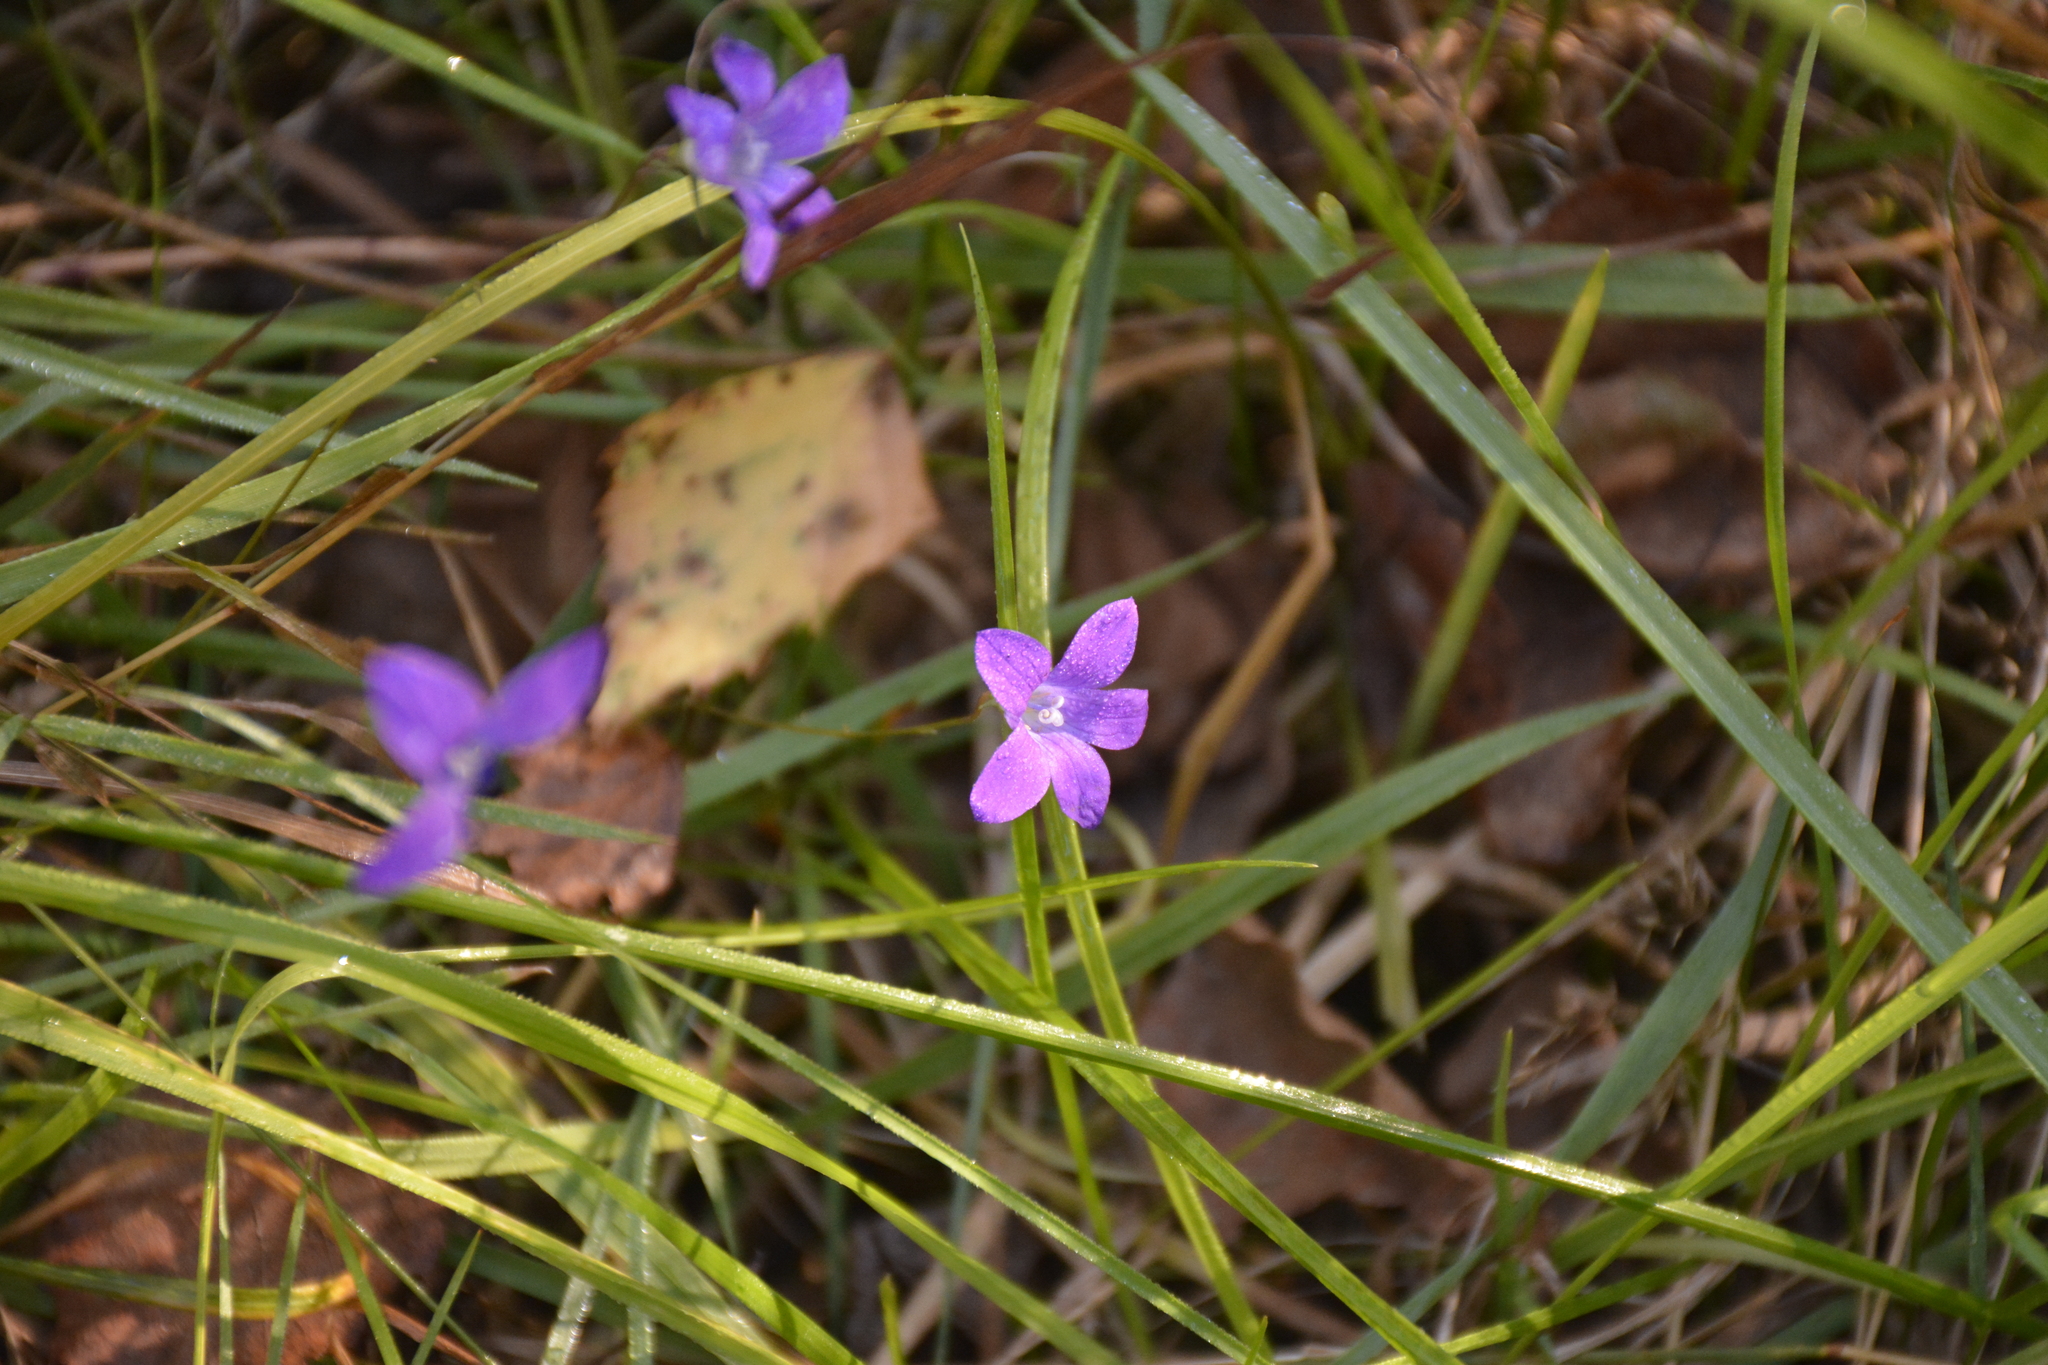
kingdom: Plantae
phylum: Tracheophyta
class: Magnoliopsida
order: Asterales
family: Campanulaceae
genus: Campanula
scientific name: Campanula patula
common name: Spreading bellflower
